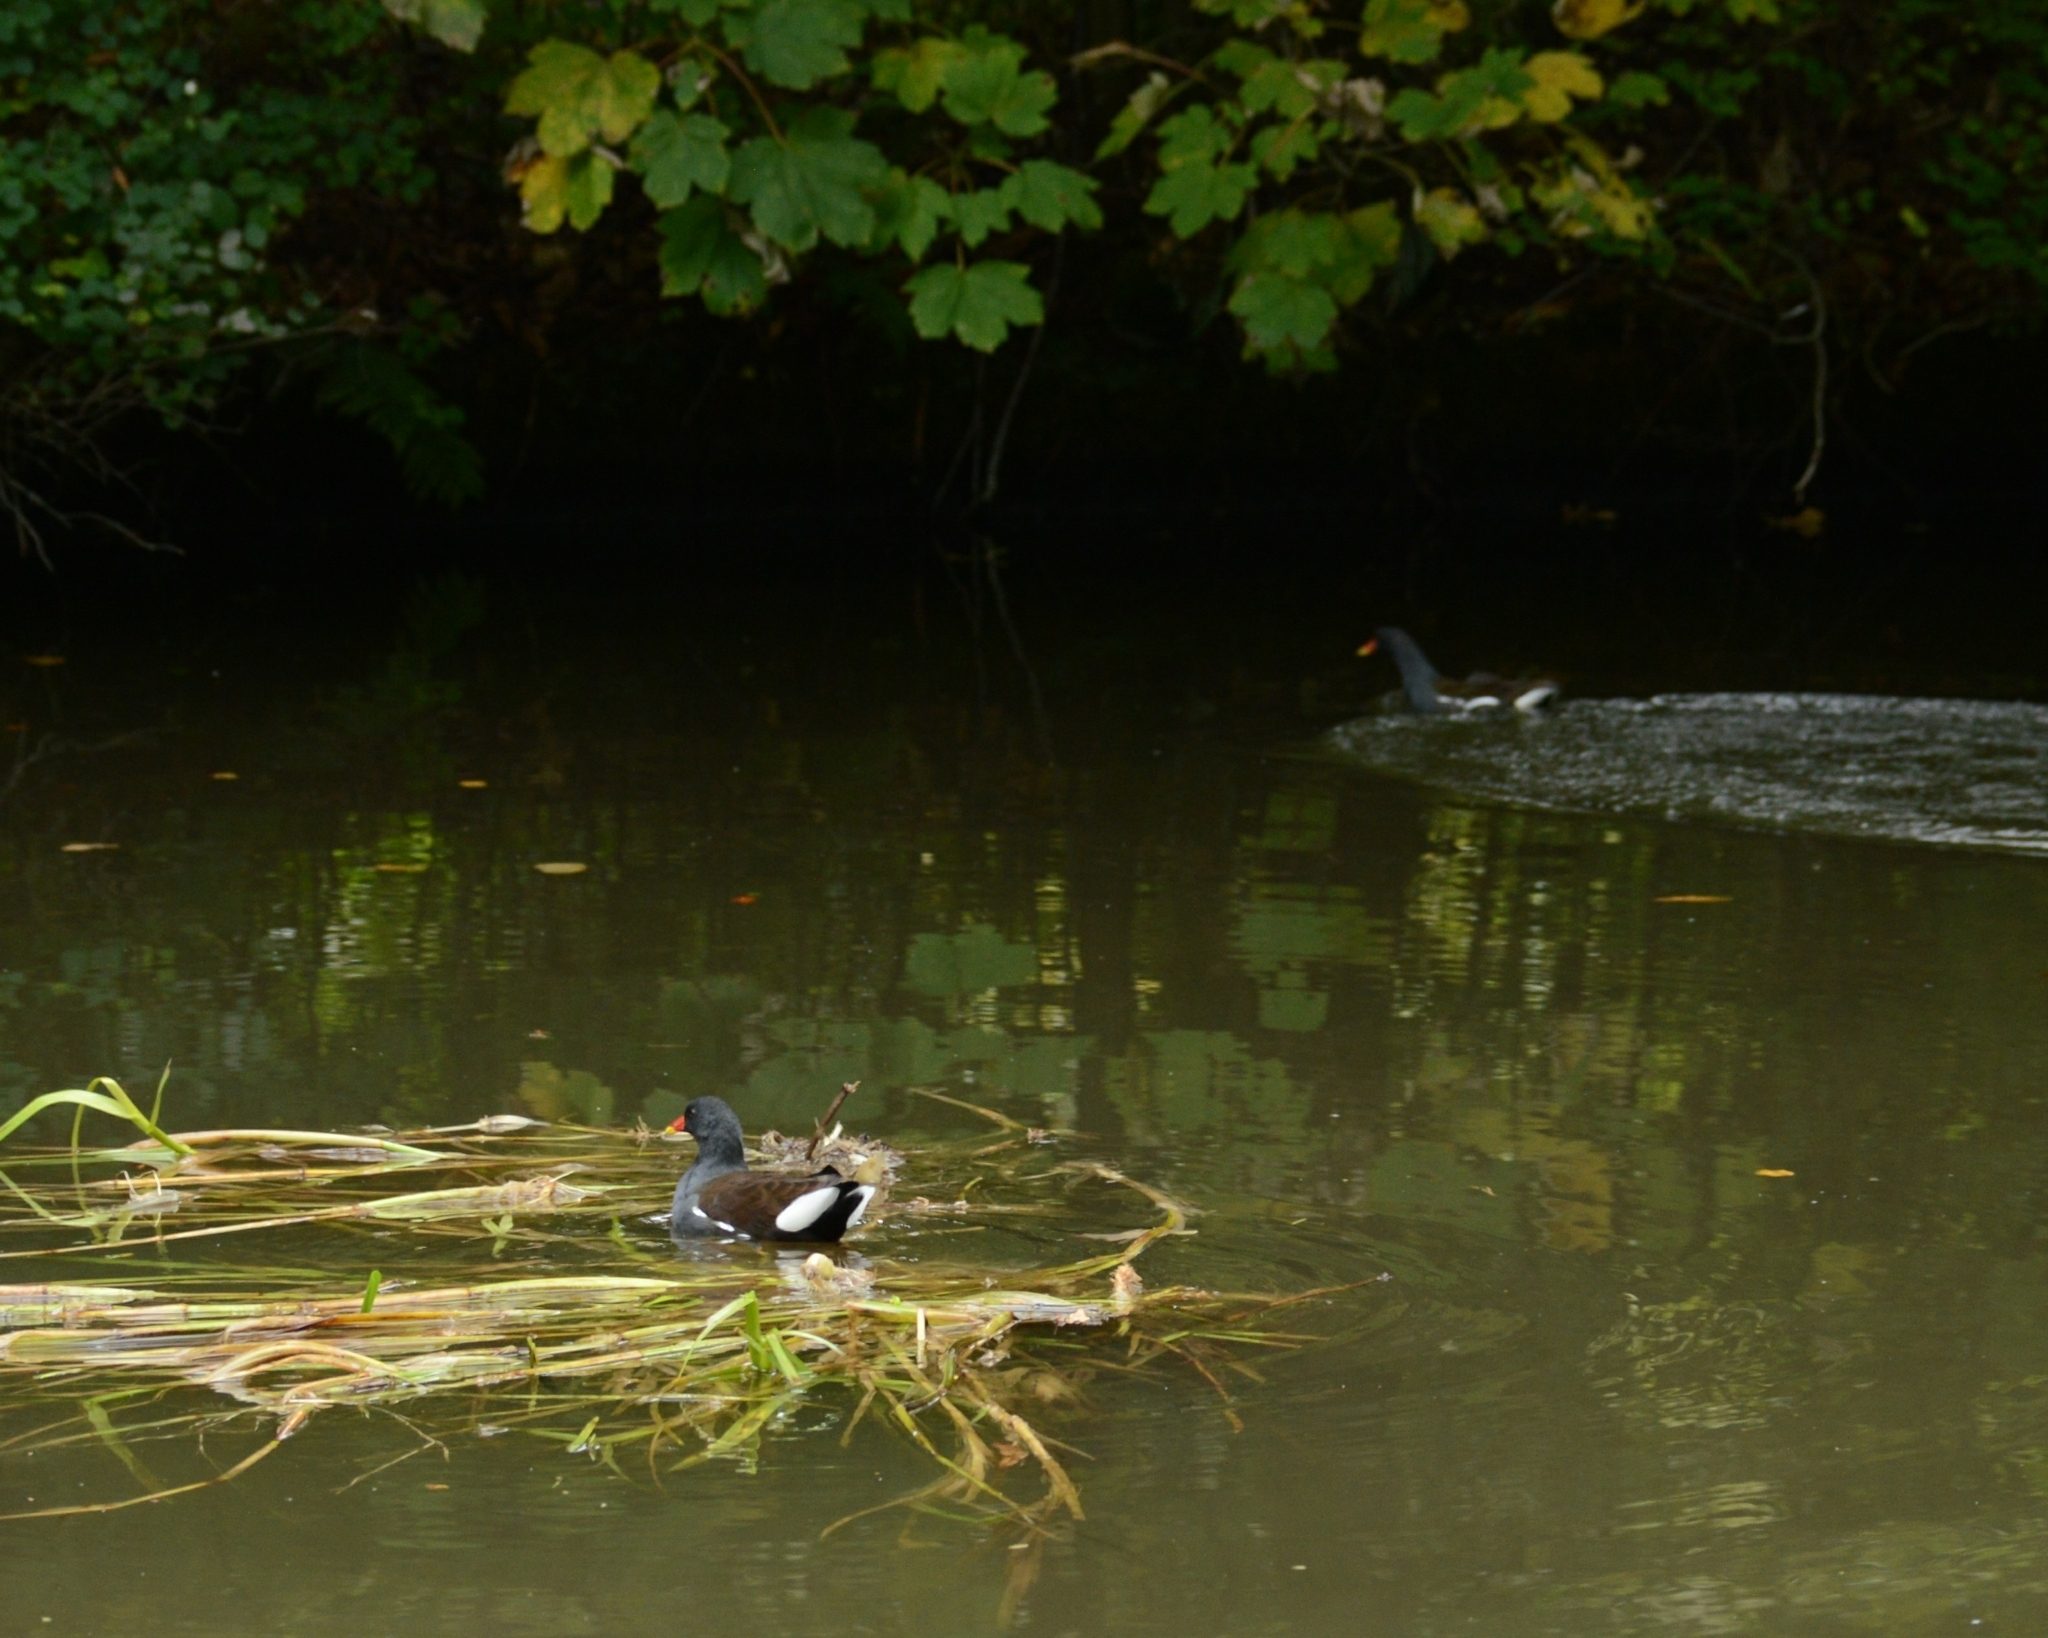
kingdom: Animalia
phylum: Chordata
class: Aves
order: Gruiformes
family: Rallidae
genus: Gallinula
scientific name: Gallinula chloropus
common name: Common moorhen
